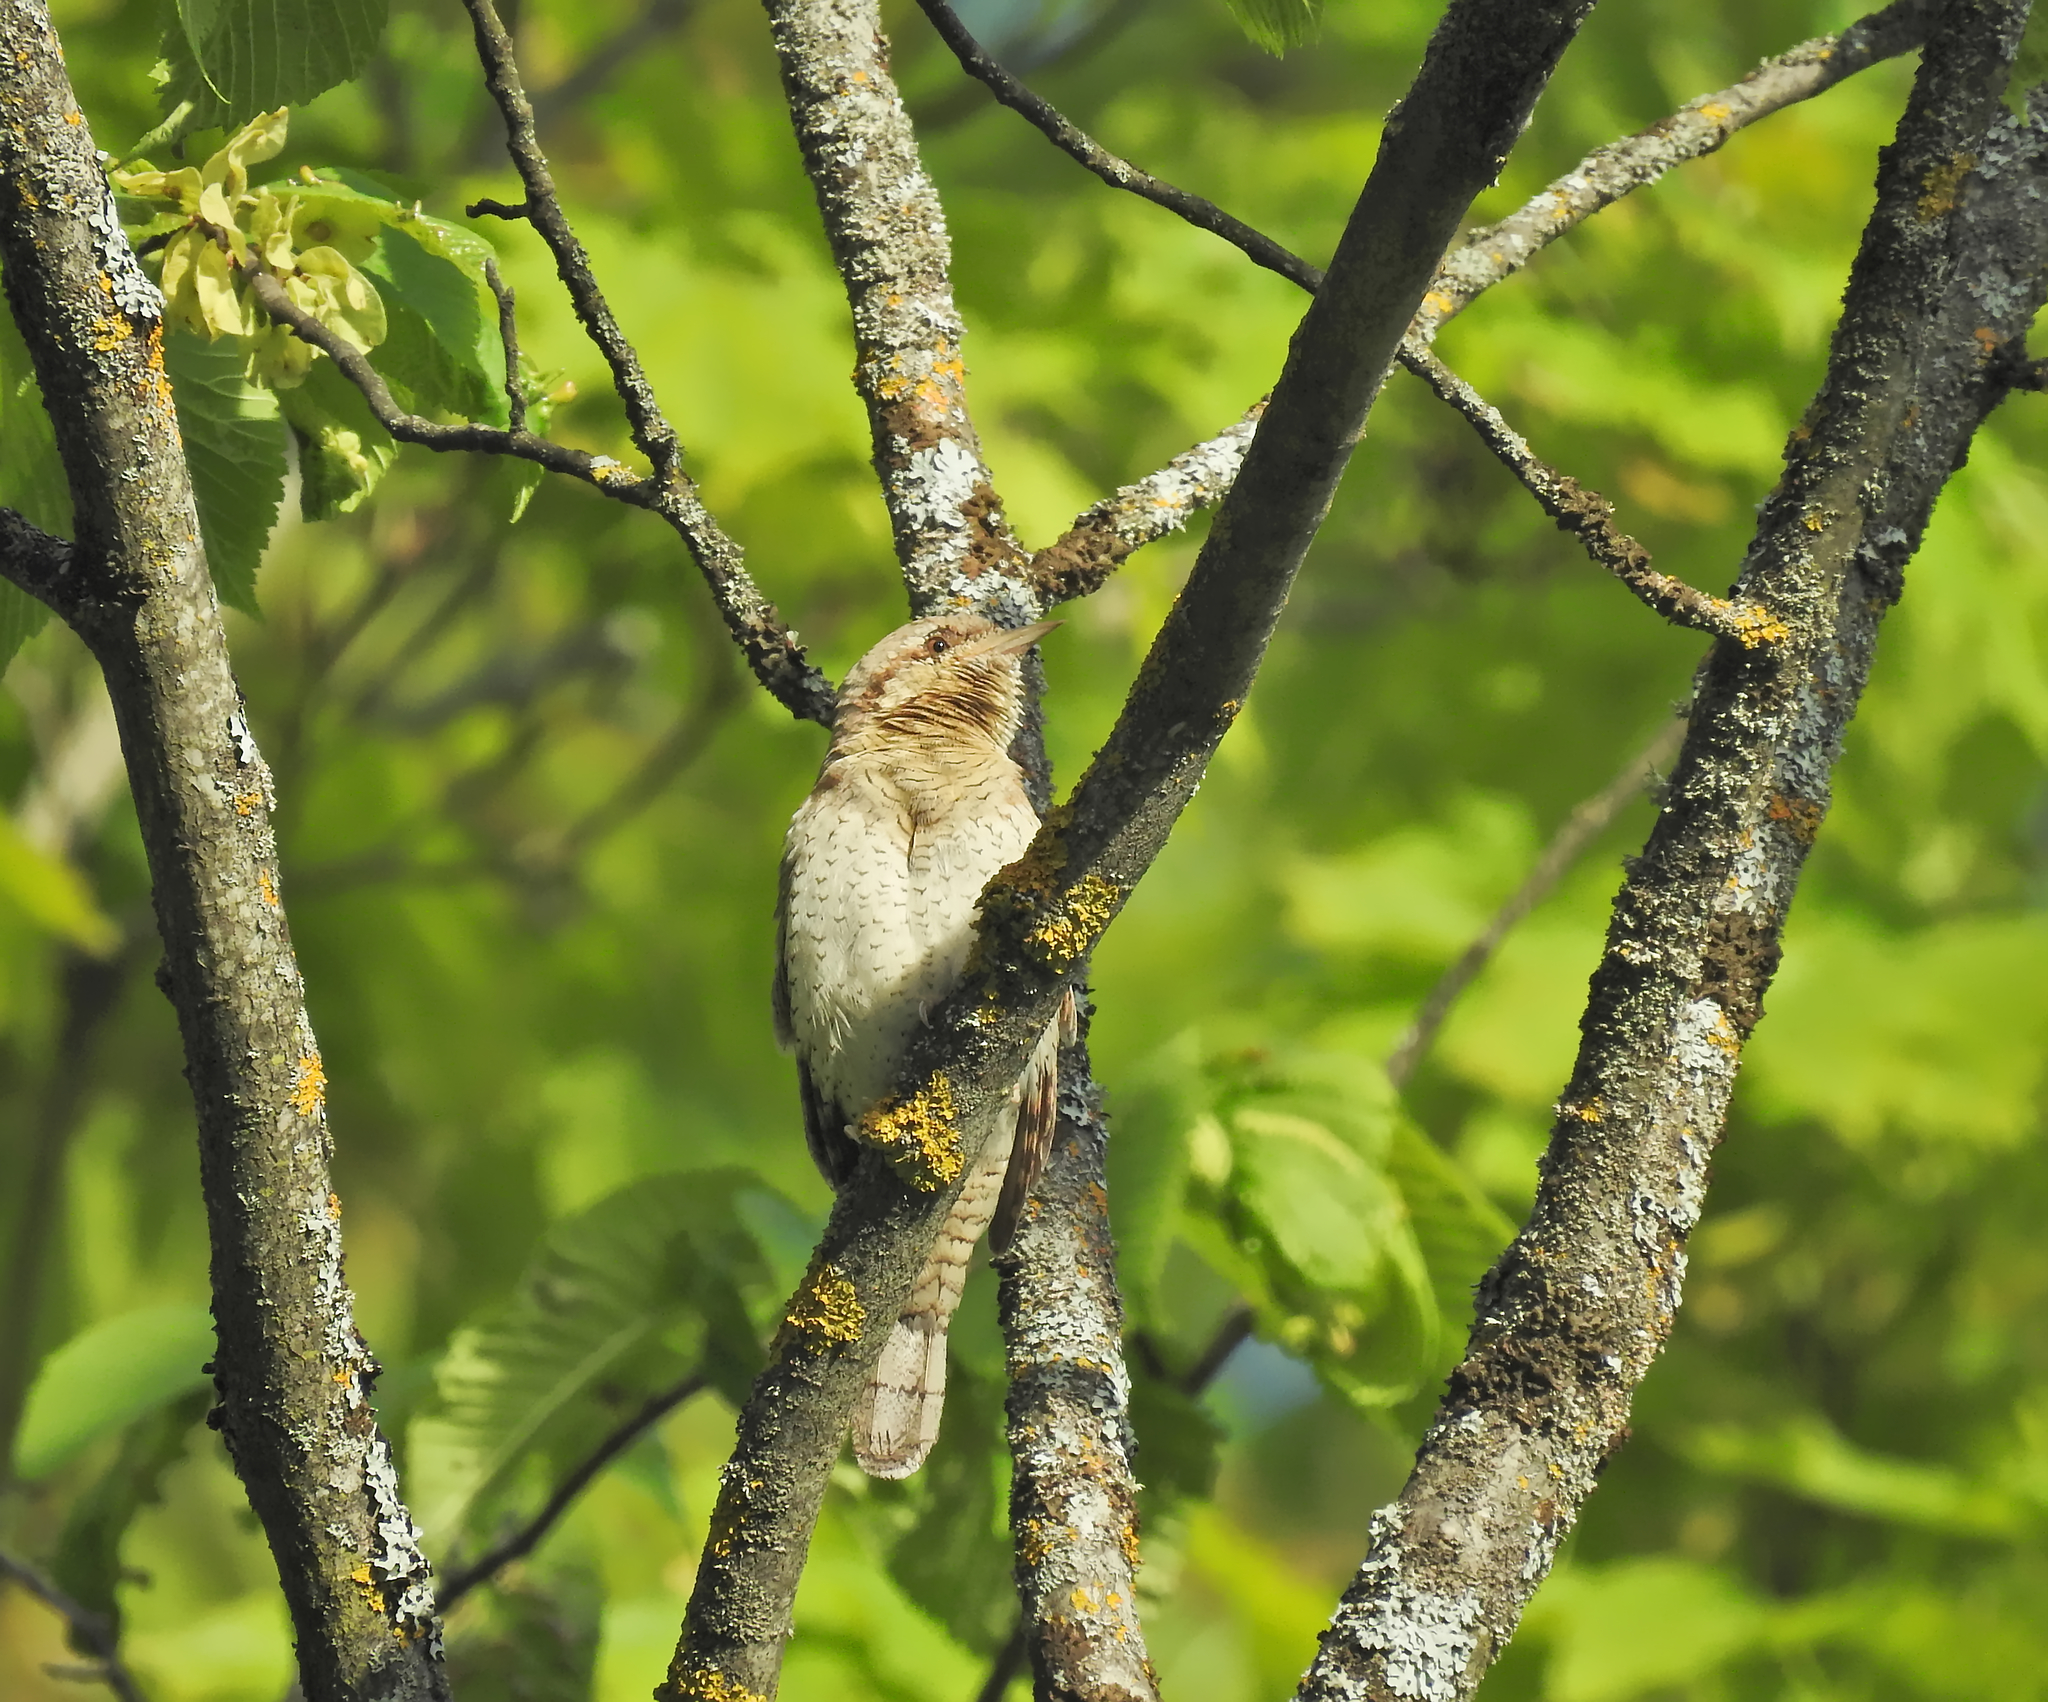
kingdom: Animalia
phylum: Chordata
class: Aves
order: Piciformes
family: Picidae
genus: Jynx
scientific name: Jynx torquilla
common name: Eurasian wryneck
